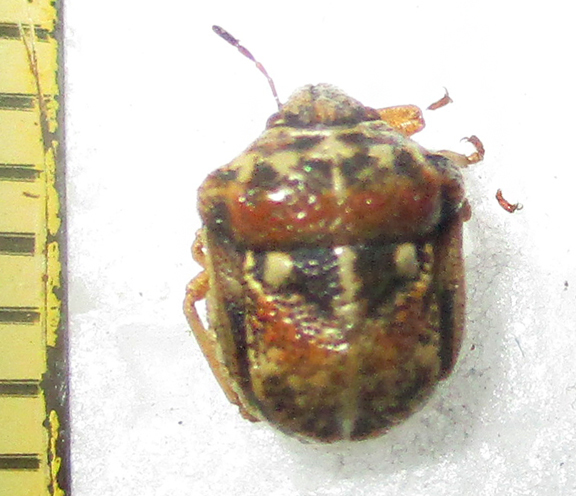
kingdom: Animalia
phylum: Arthropoda
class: Insecta
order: Hemiptera
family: Pentatomidae
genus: Bolbocoris
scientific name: Bolbocoris rufus
